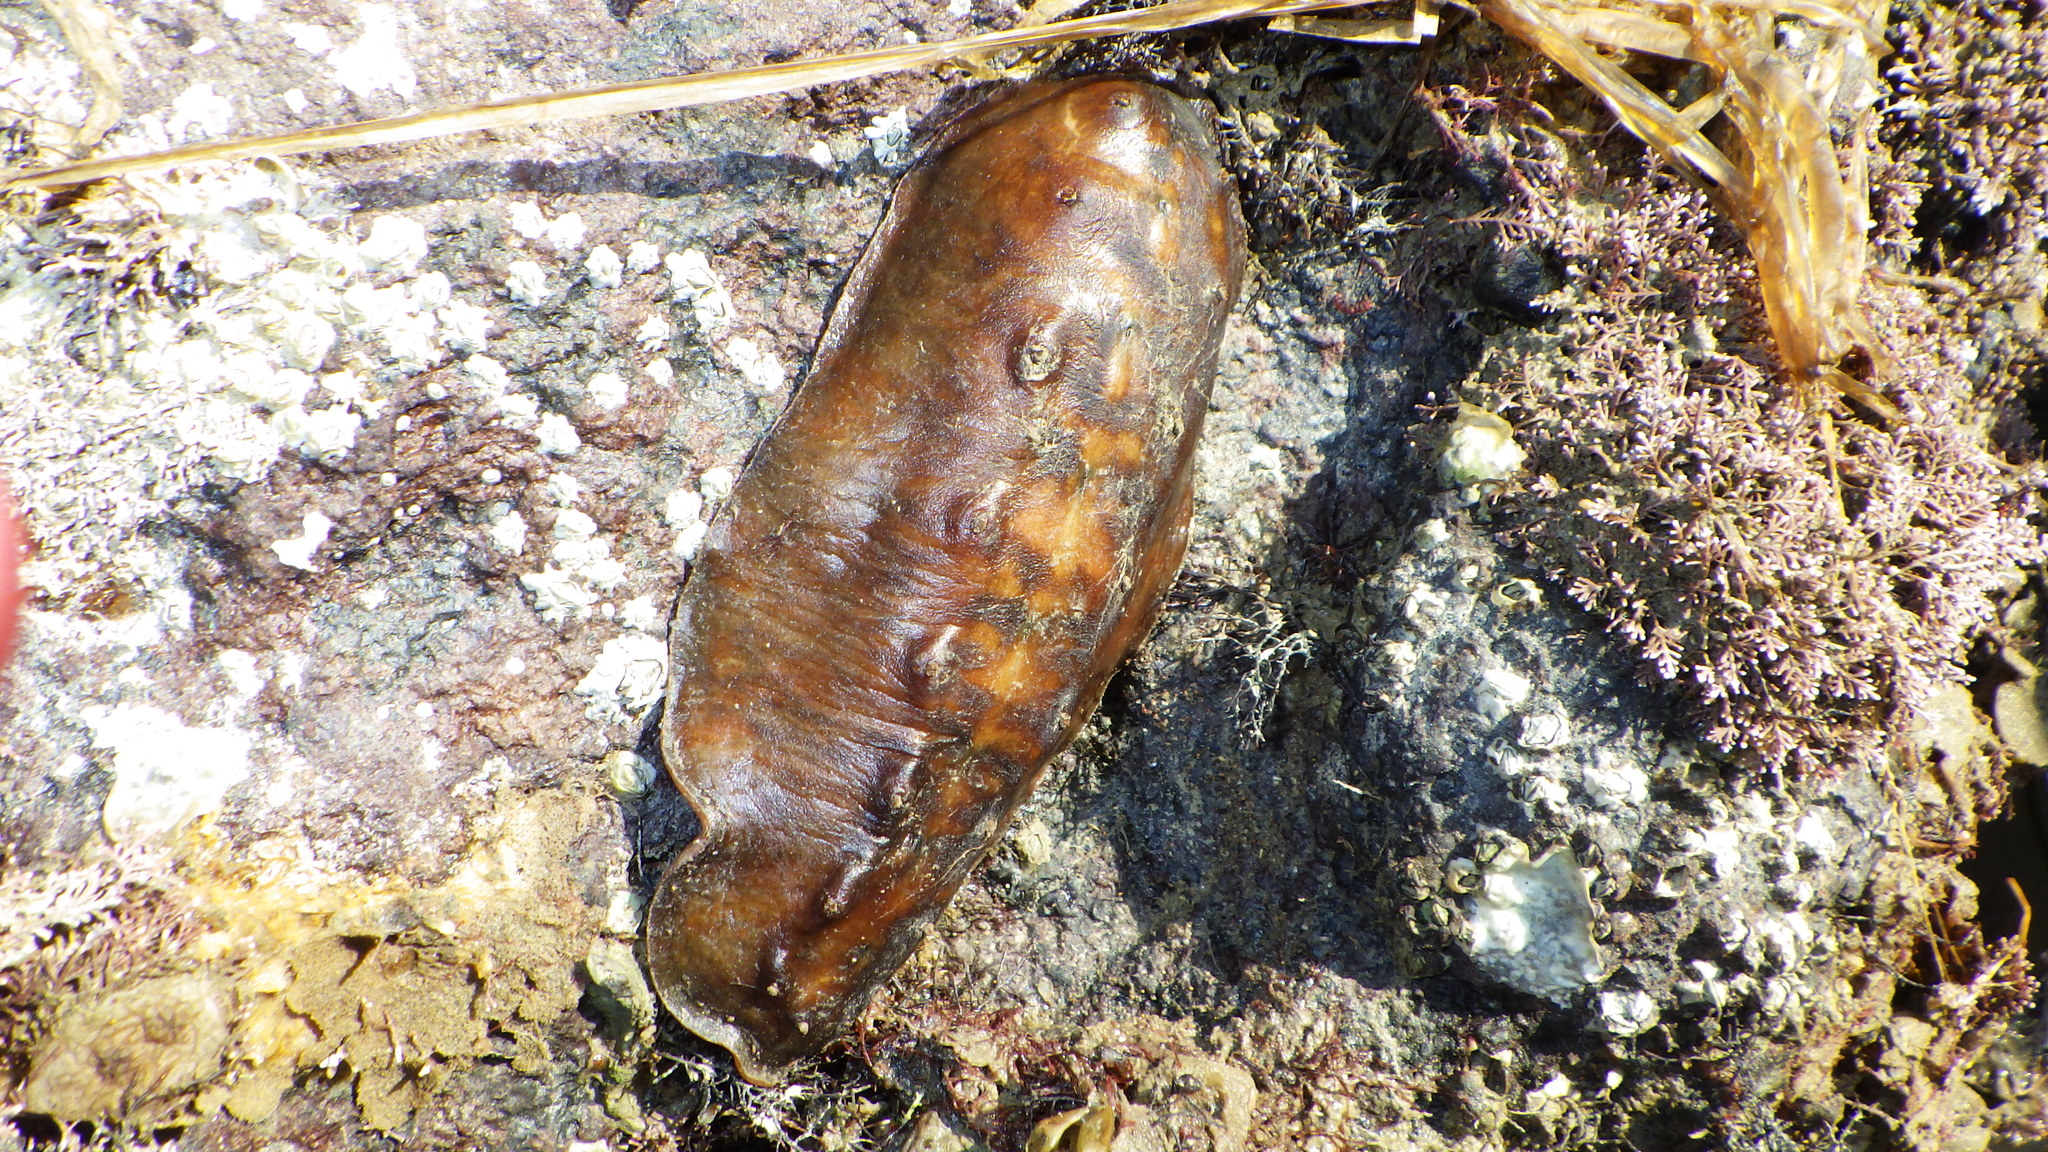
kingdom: Animalia
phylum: Mollusca
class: Polyplacophora
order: Chitonida
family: Acanthochitonidae
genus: Cryptoconchus
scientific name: Cryptoconchus porosus
